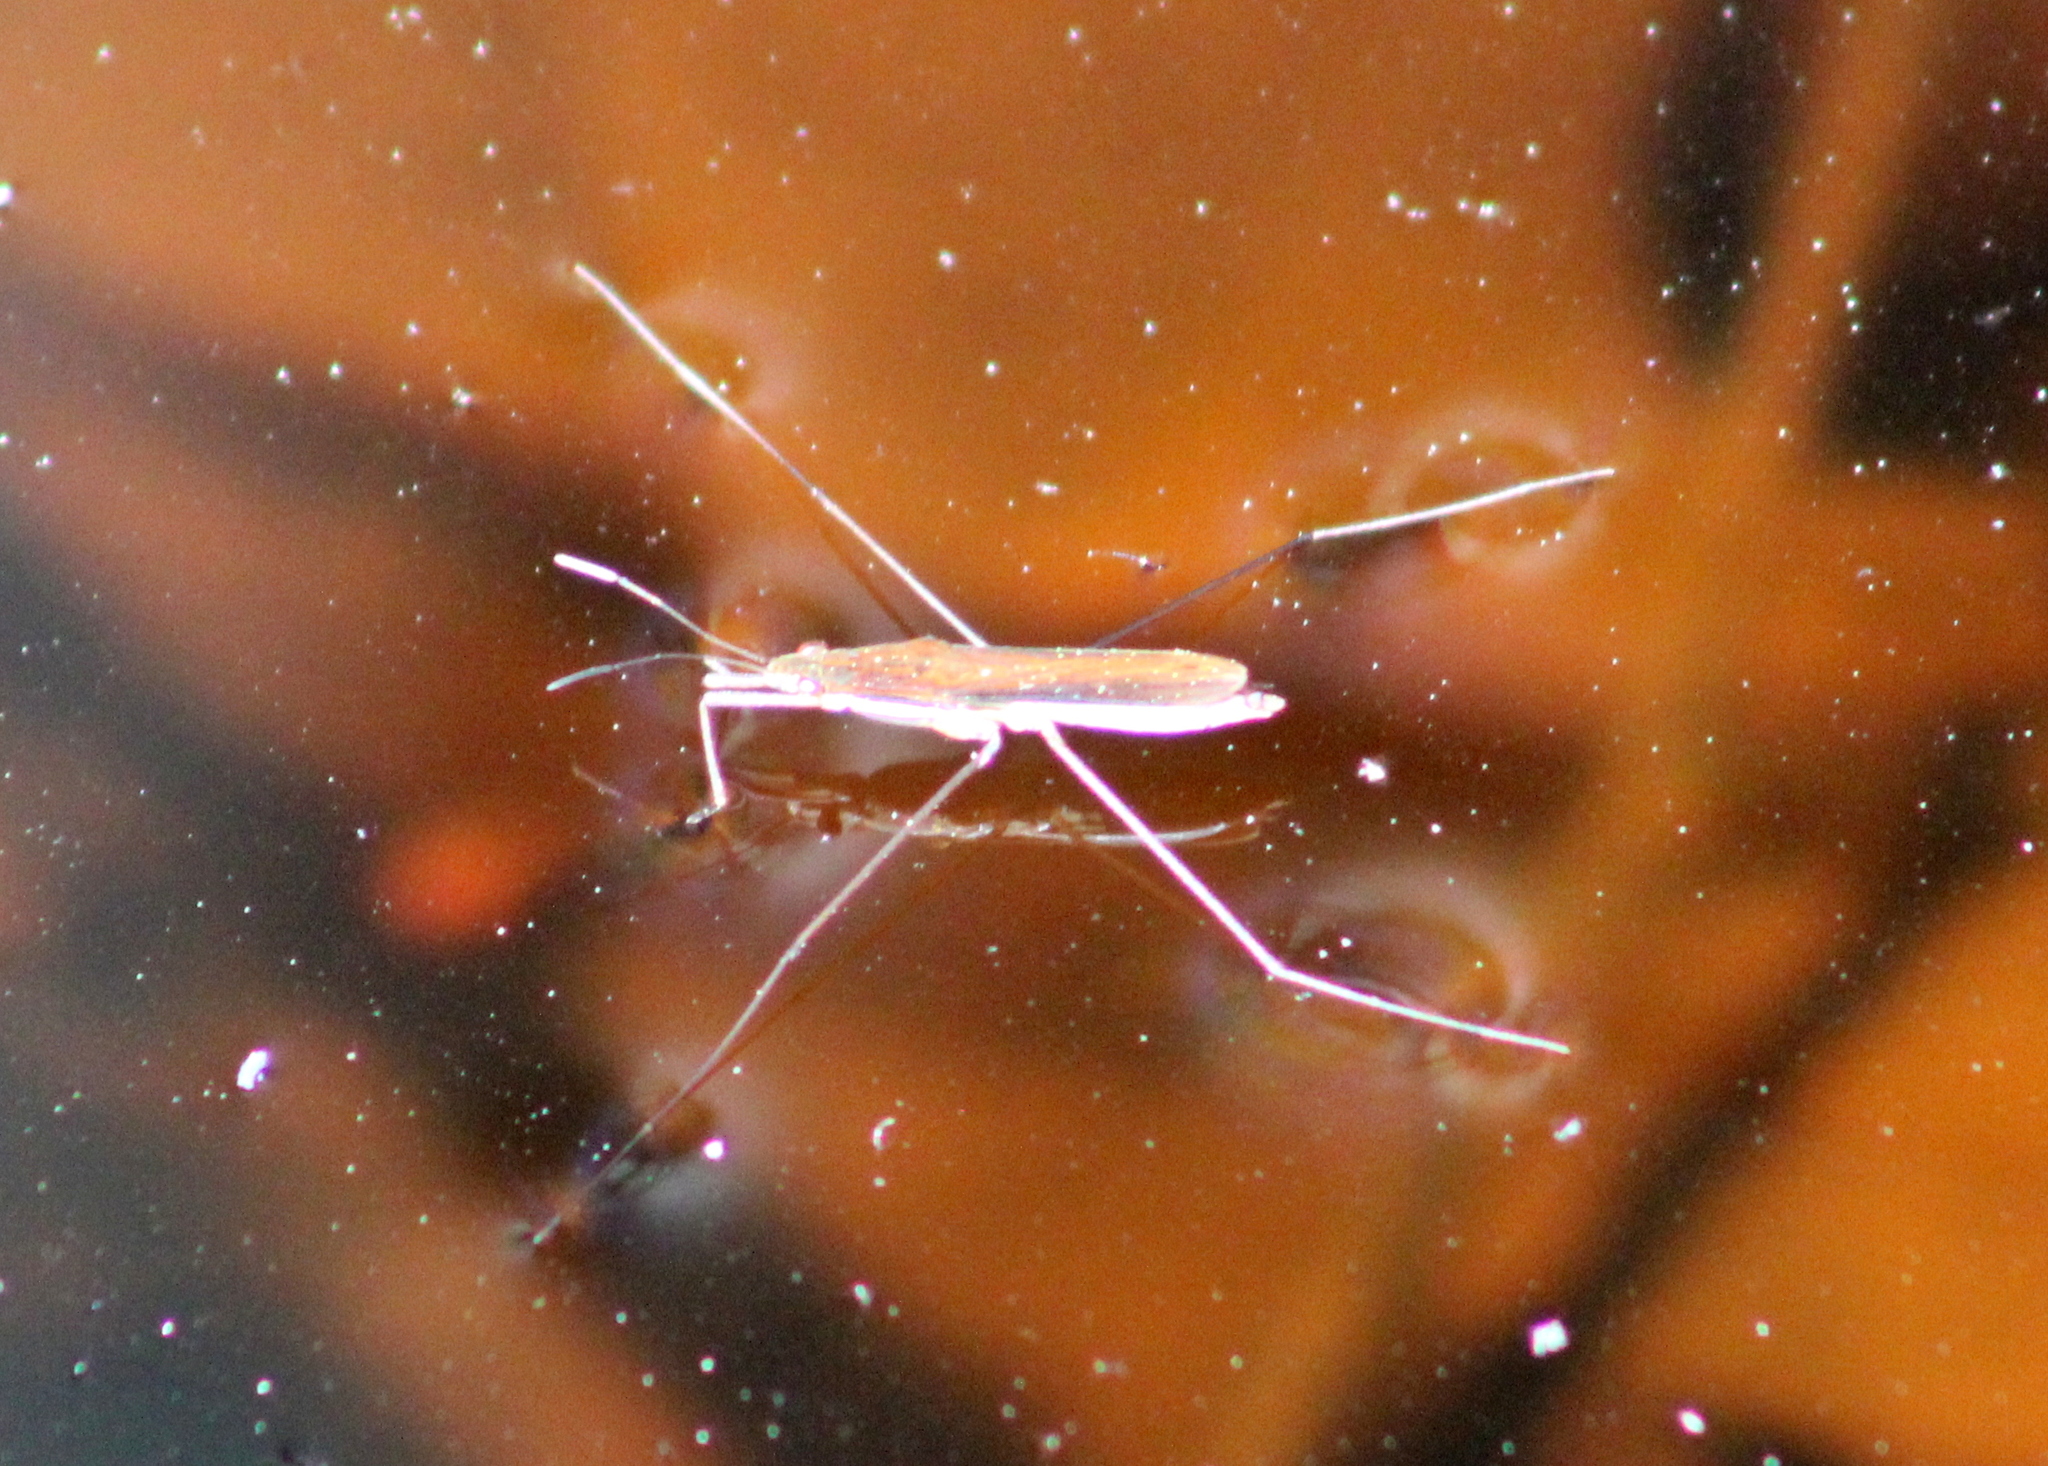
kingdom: Animalia
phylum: Arthropoda
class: Insecta
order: Hemiptera
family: Gerridae
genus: Limnoporus
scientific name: Limnoporus dissortis
